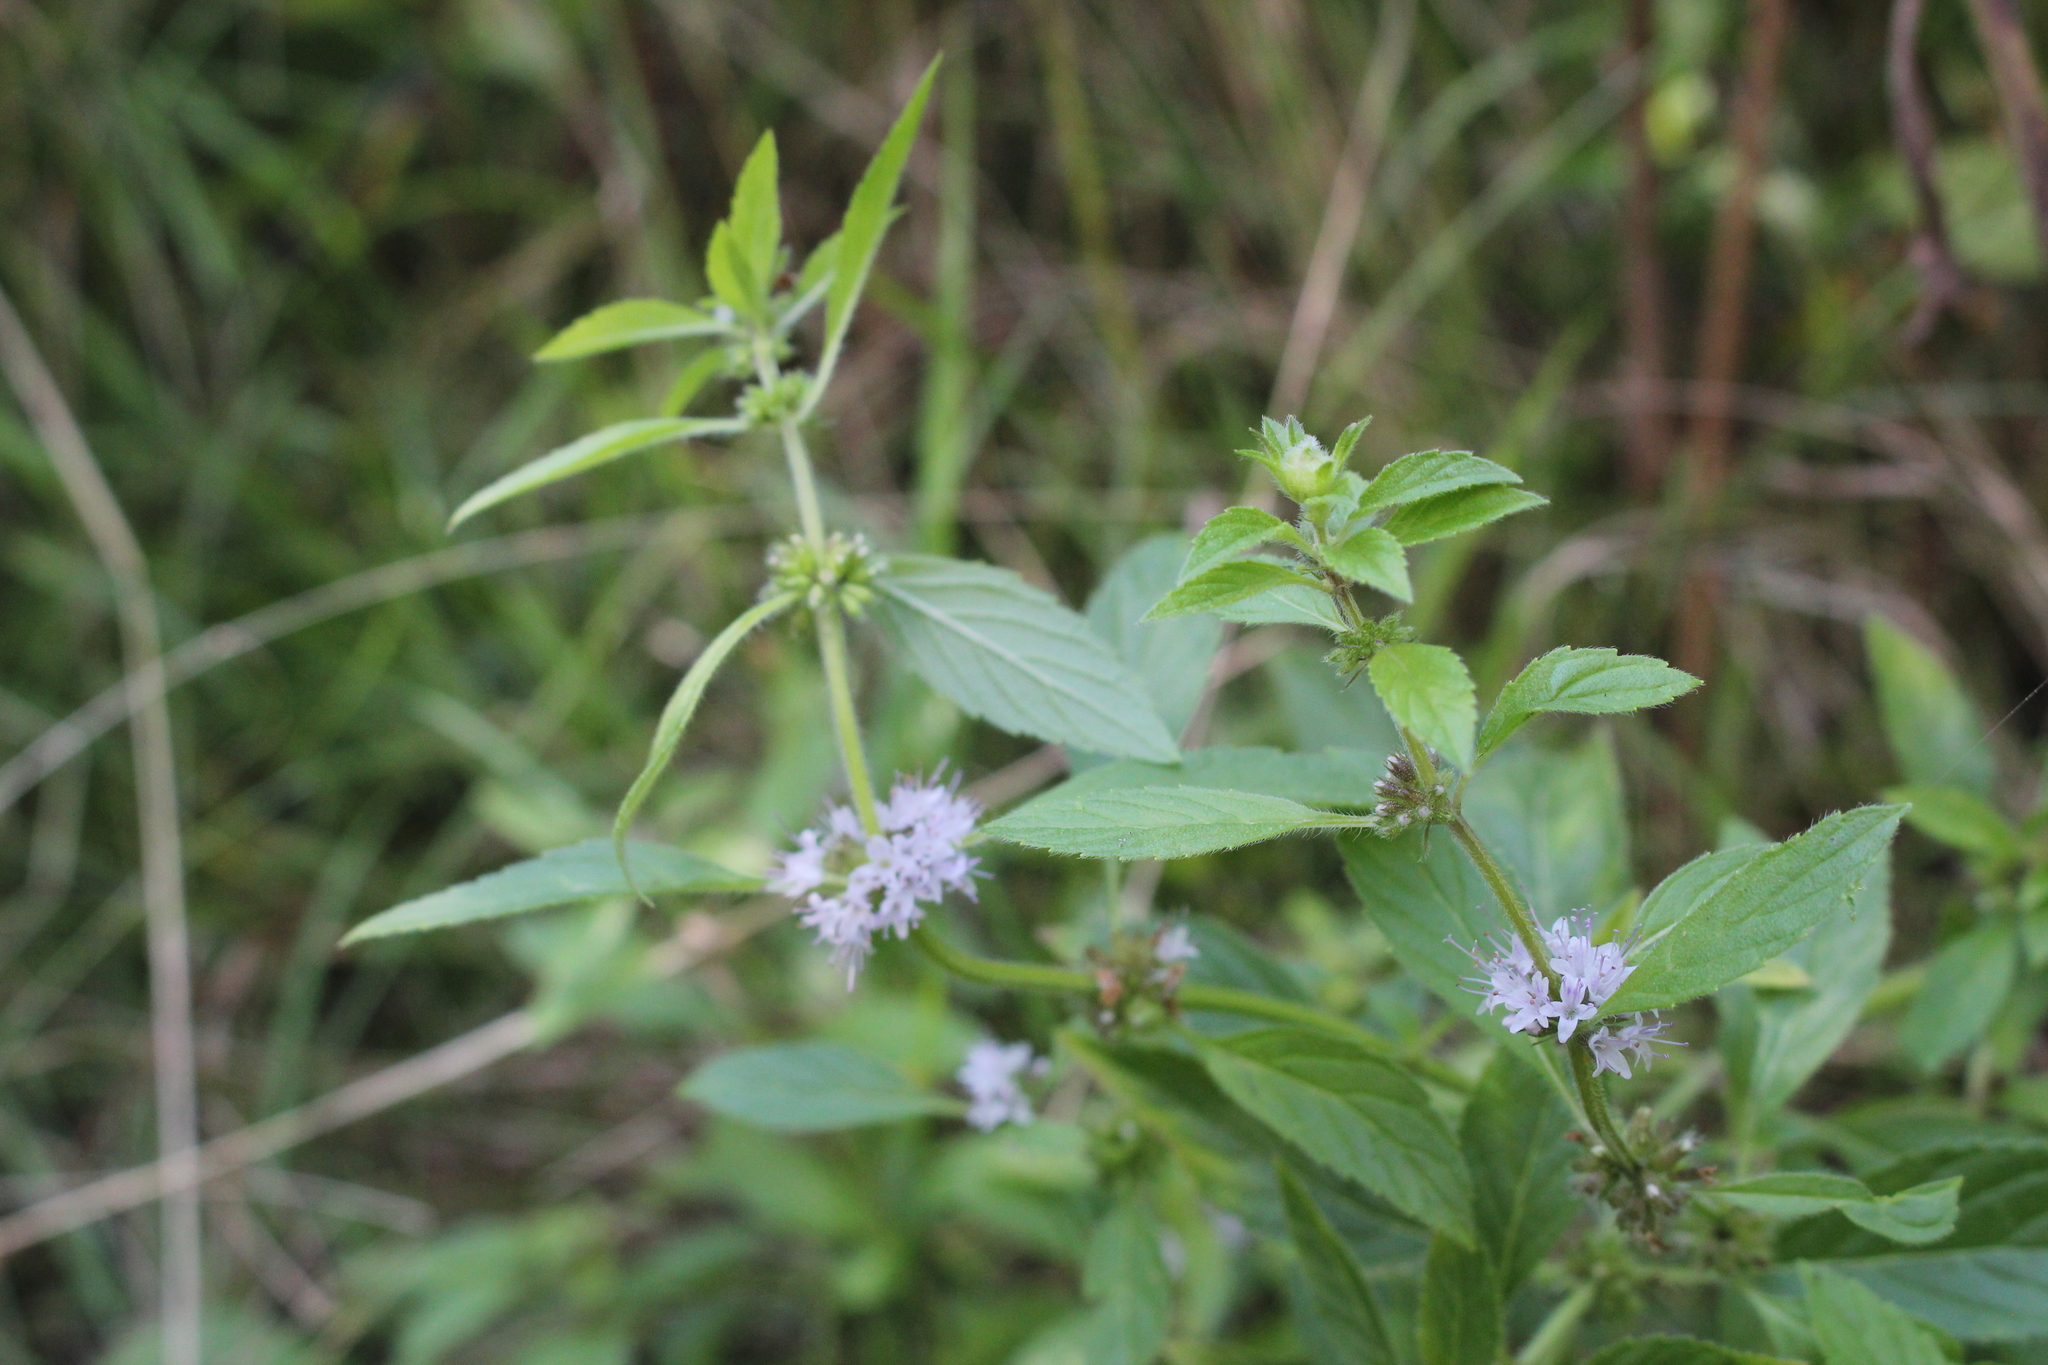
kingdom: Plantae
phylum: Tracheophyta
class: Magnoliopsida
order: Lamiales
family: Lamiaceae
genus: Mentha
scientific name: Mentha canadensis
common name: American corn mint
